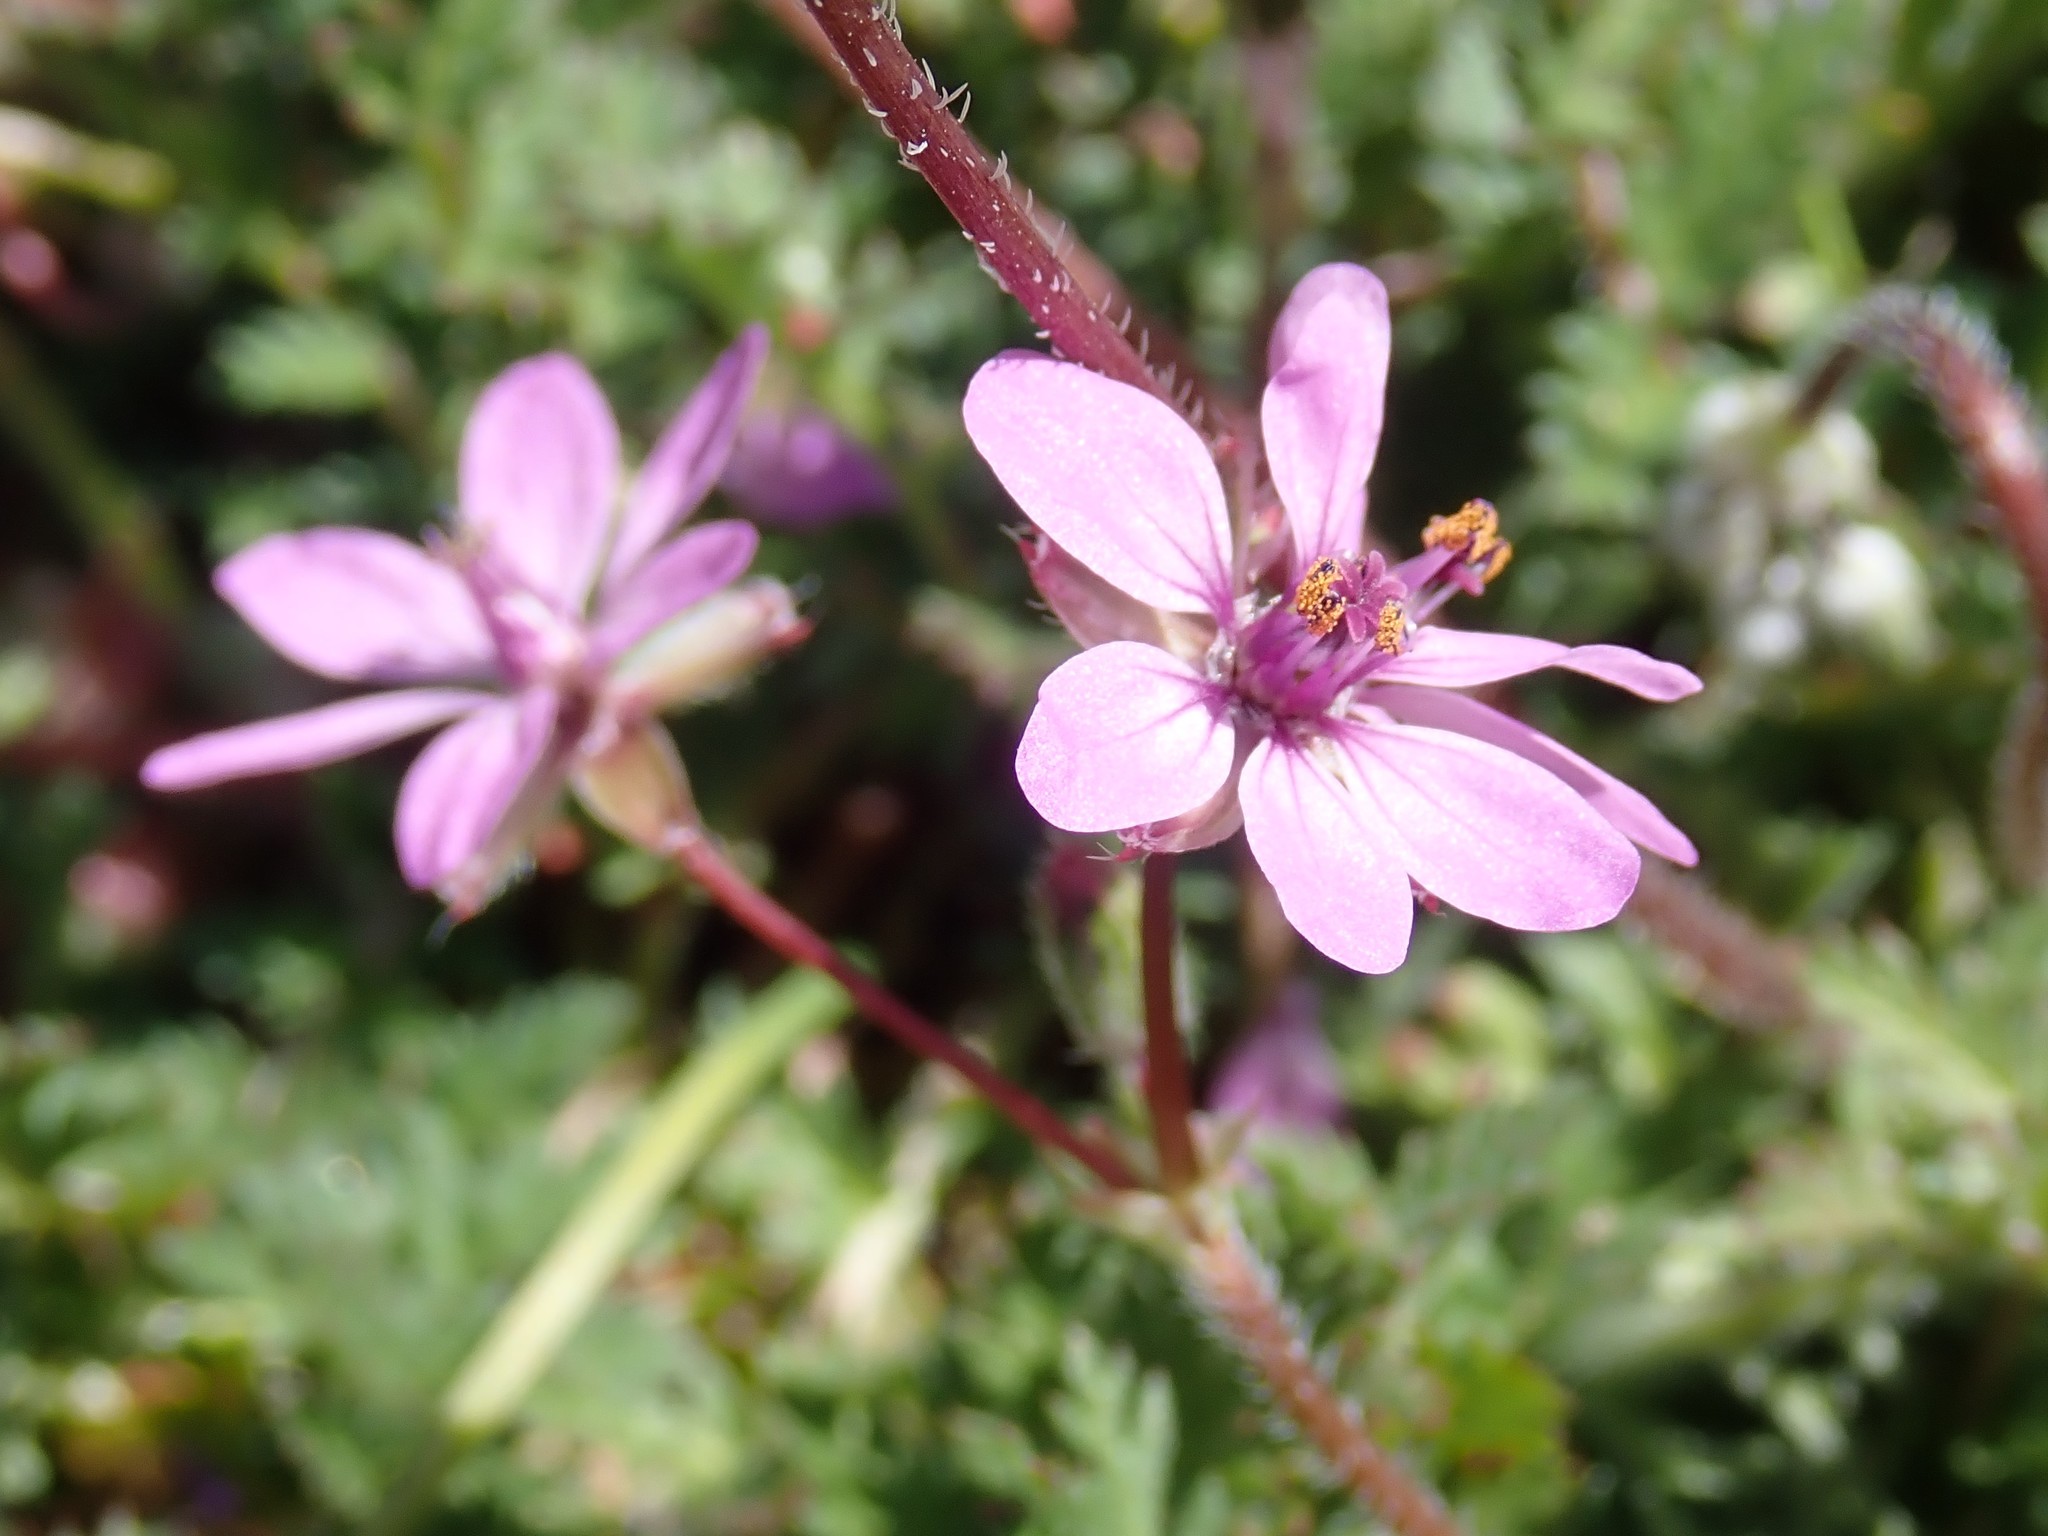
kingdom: Plantae
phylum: Tracheophyta
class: Magnoliopsida
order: Geraniales
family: Geraniaceae
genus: Erodium
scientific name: Erodium cicutarium
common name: Common stork's-bill
